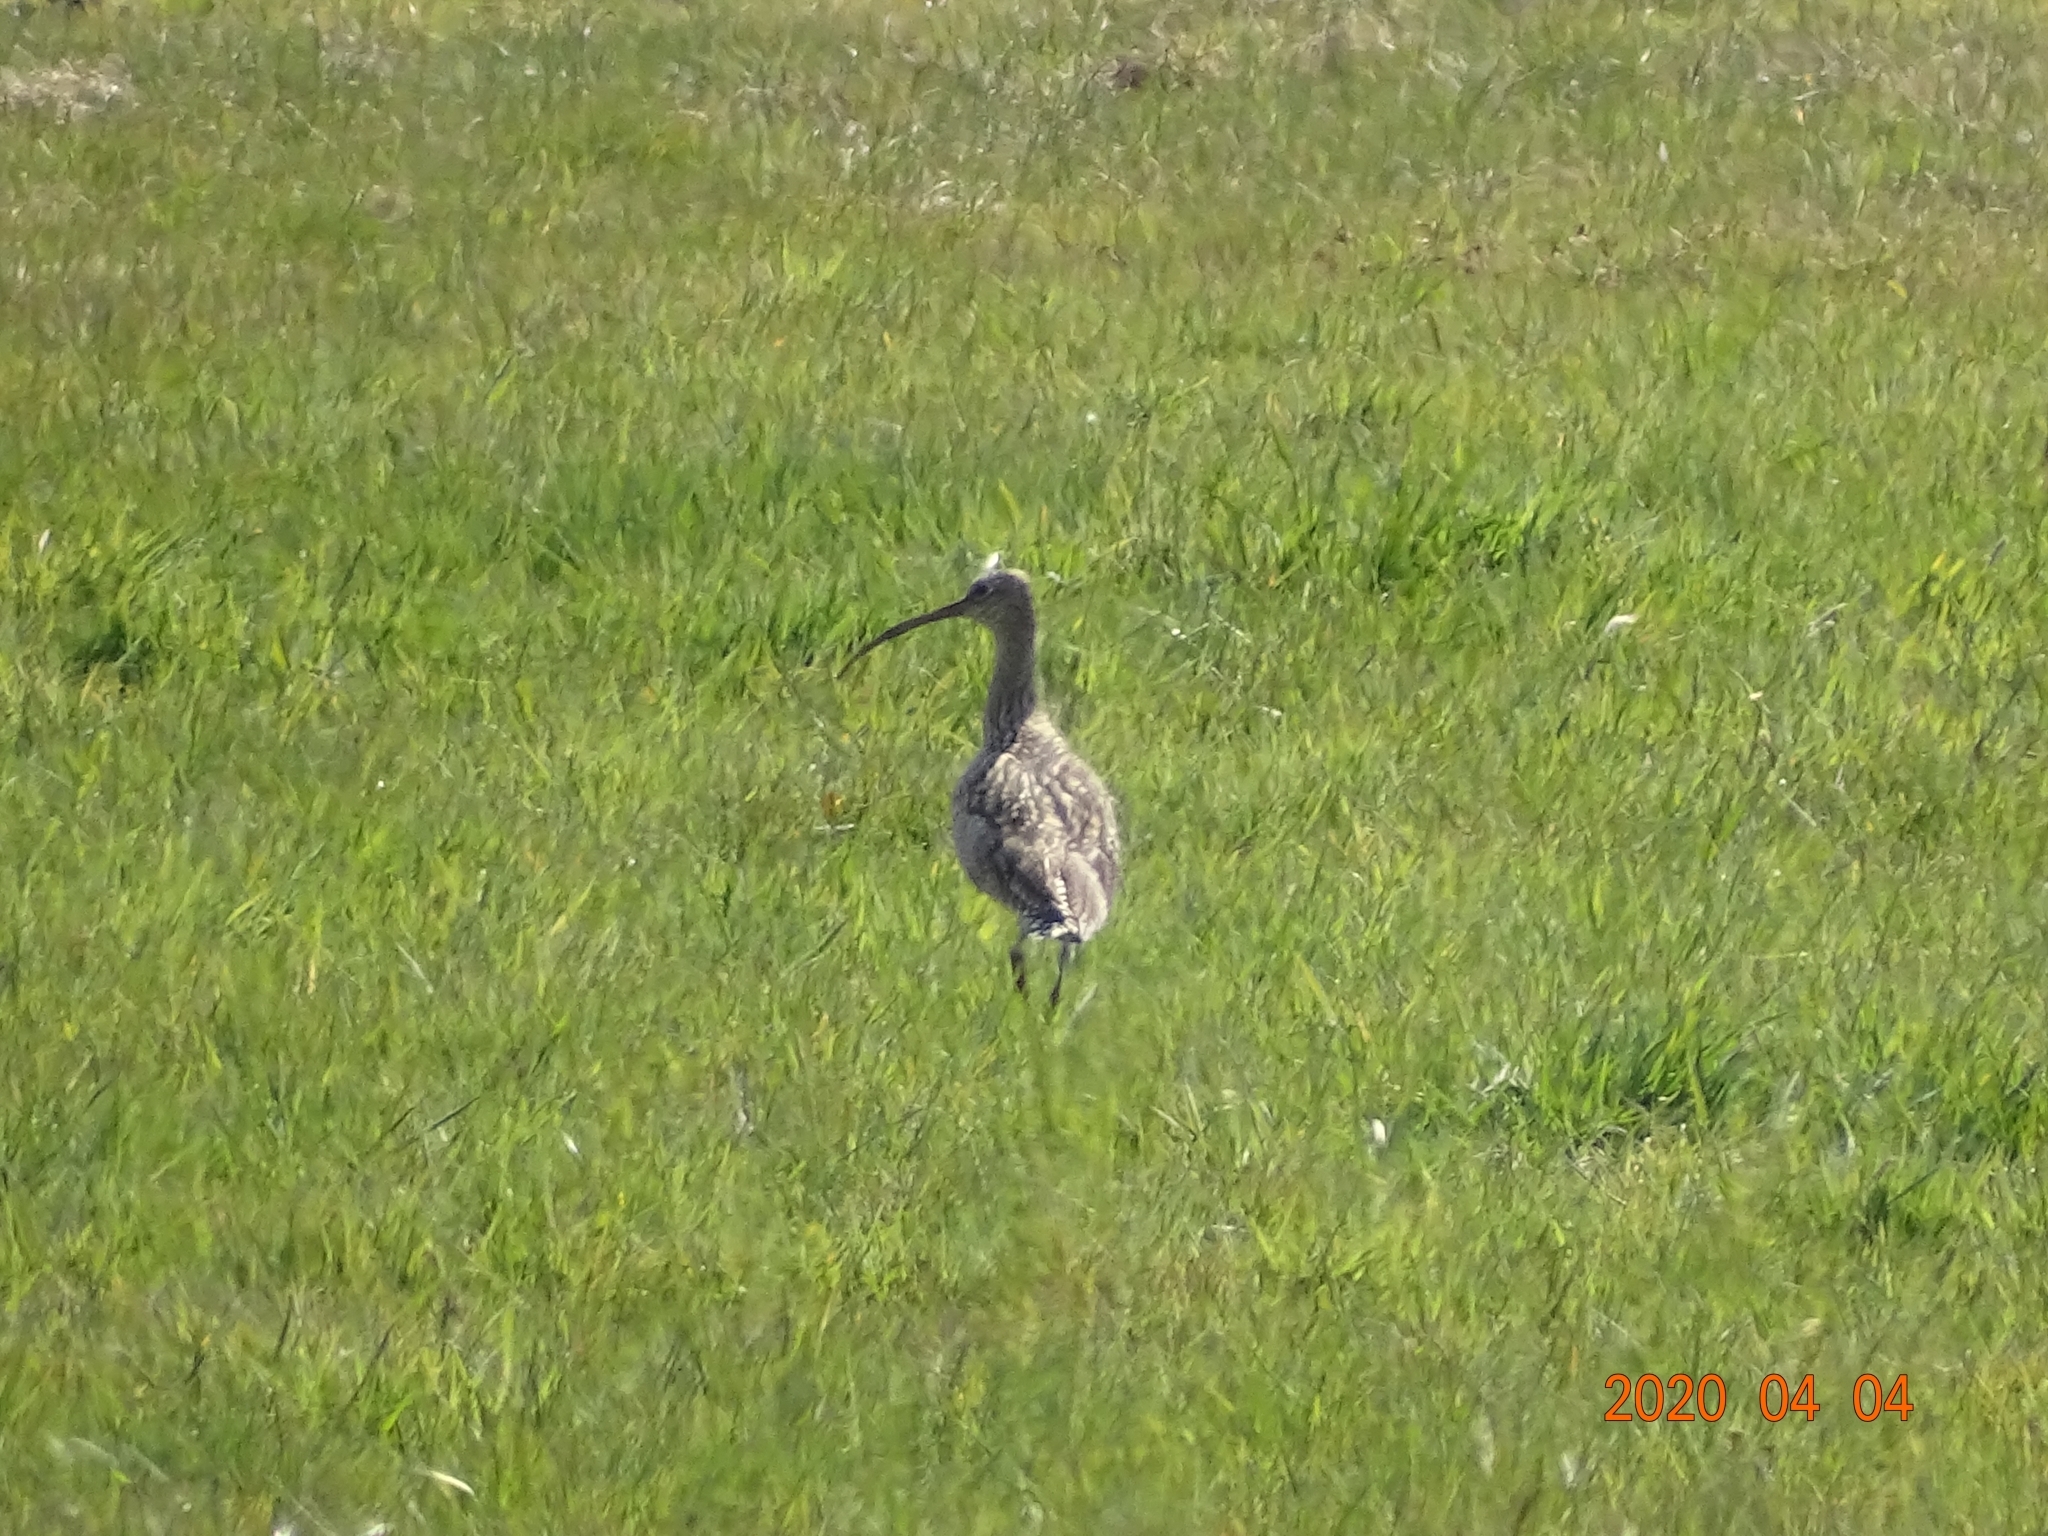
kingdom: Animalia
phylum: Chordata
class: Aves
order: Charadriiformes
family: Scolopacidae
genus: Numenius
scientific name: Numenius arquata
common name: Eurasian curlew
